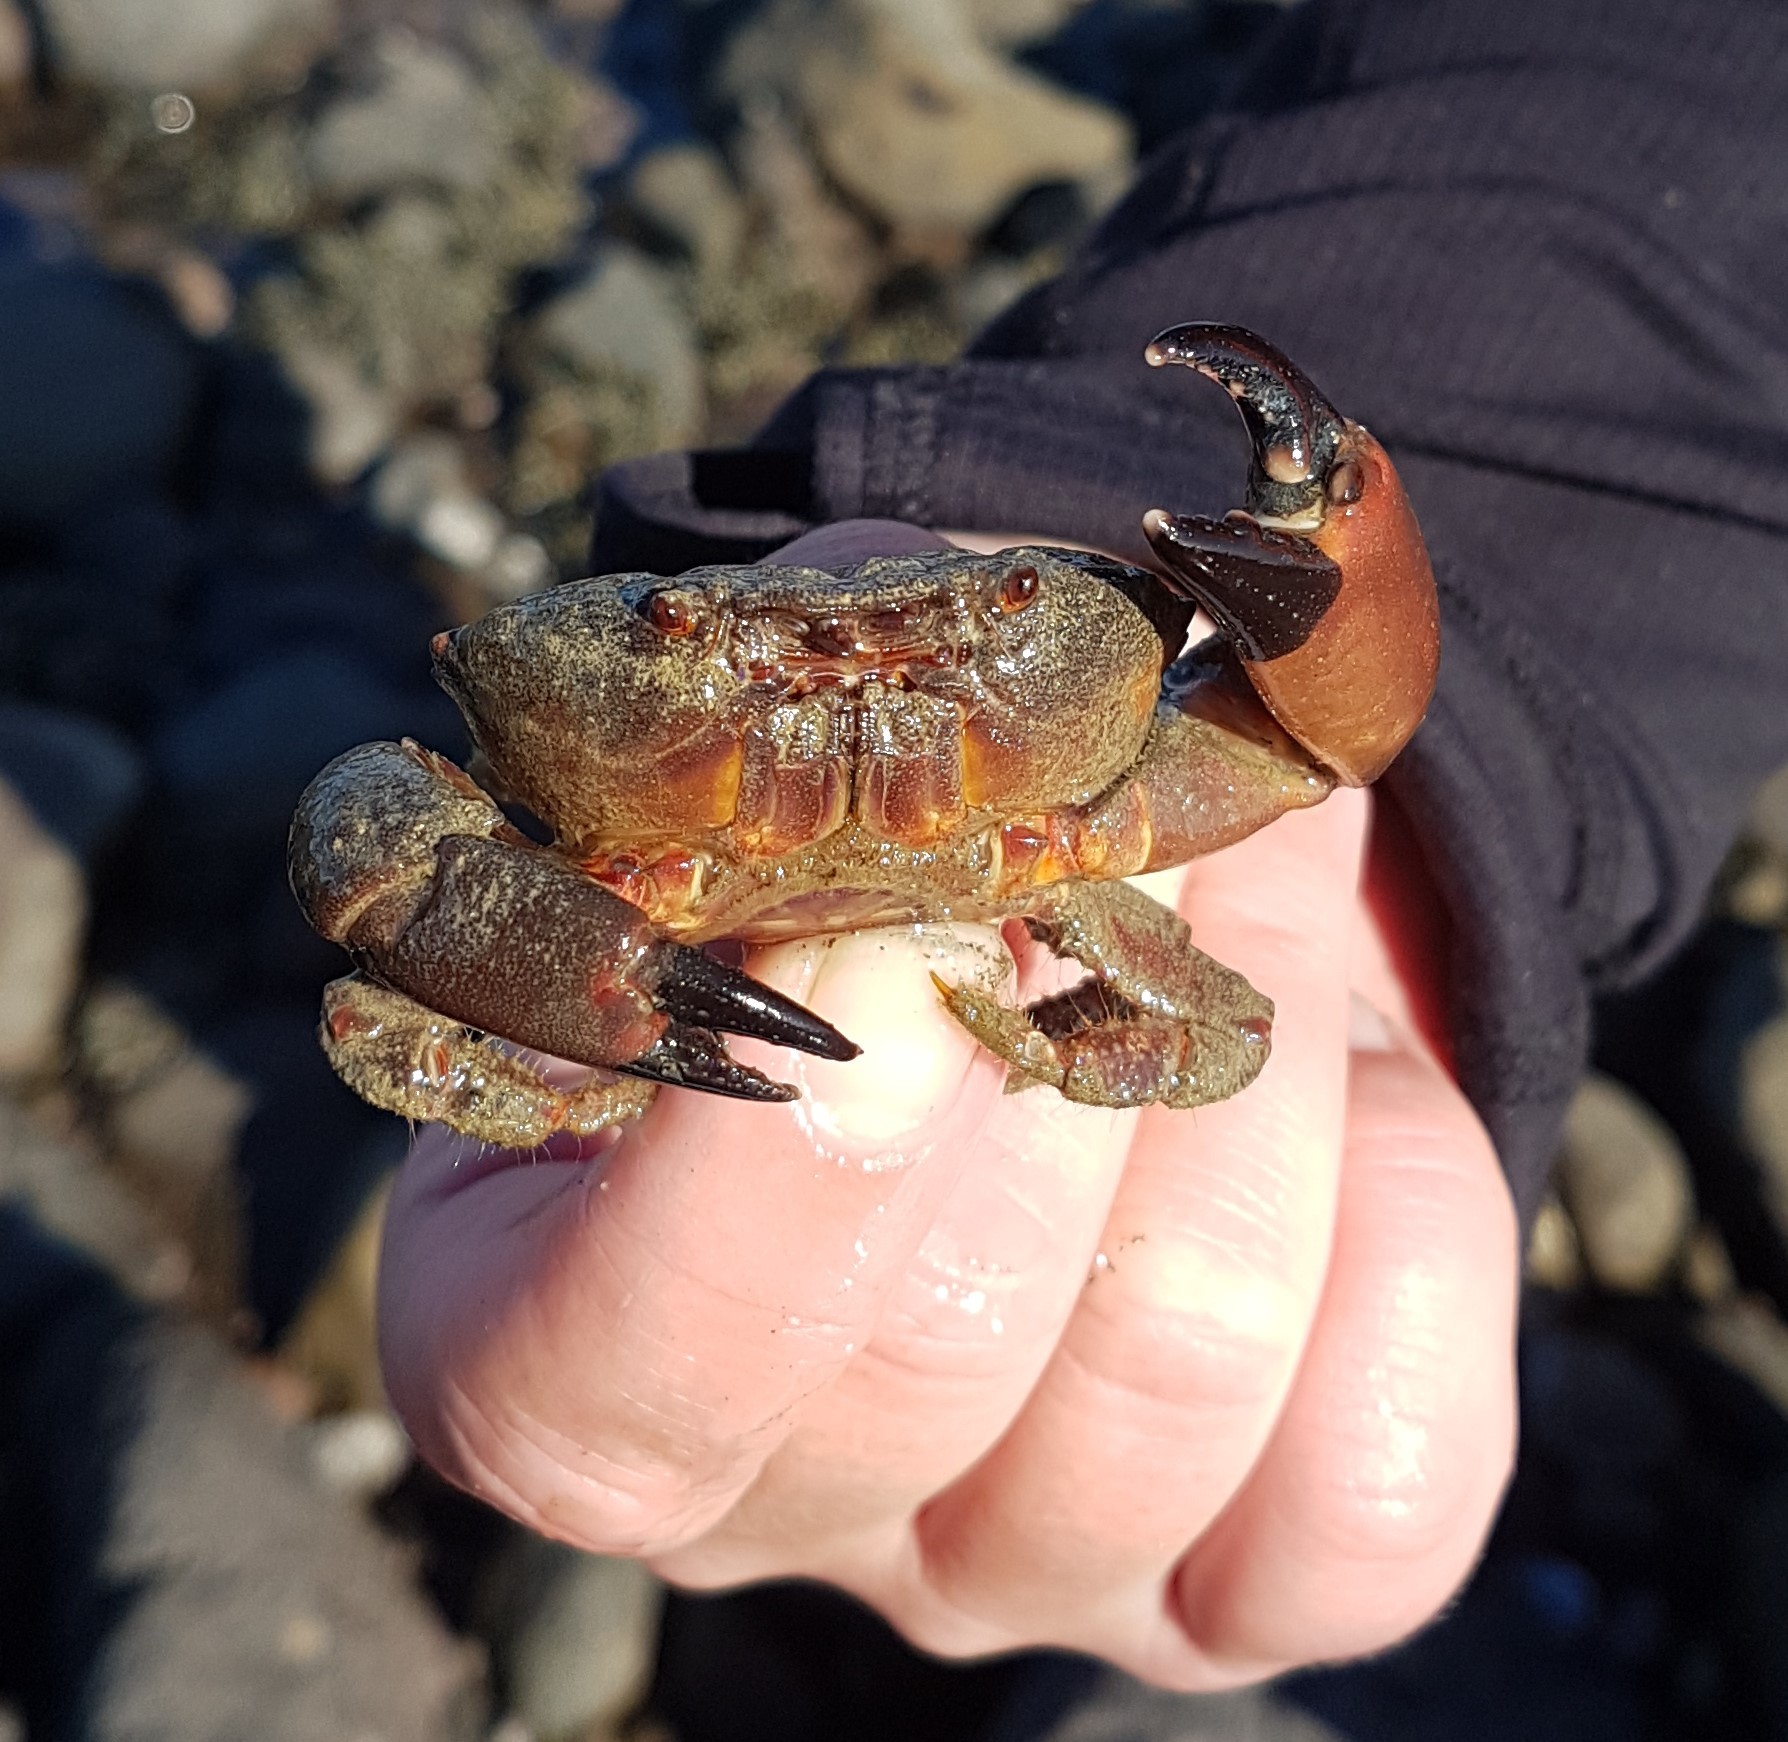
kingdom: Animalia
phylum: Arthropoda
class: Malacostraca
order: Decapoda
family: Oziidae
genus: Ozius
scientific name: Ozius deplanatus
